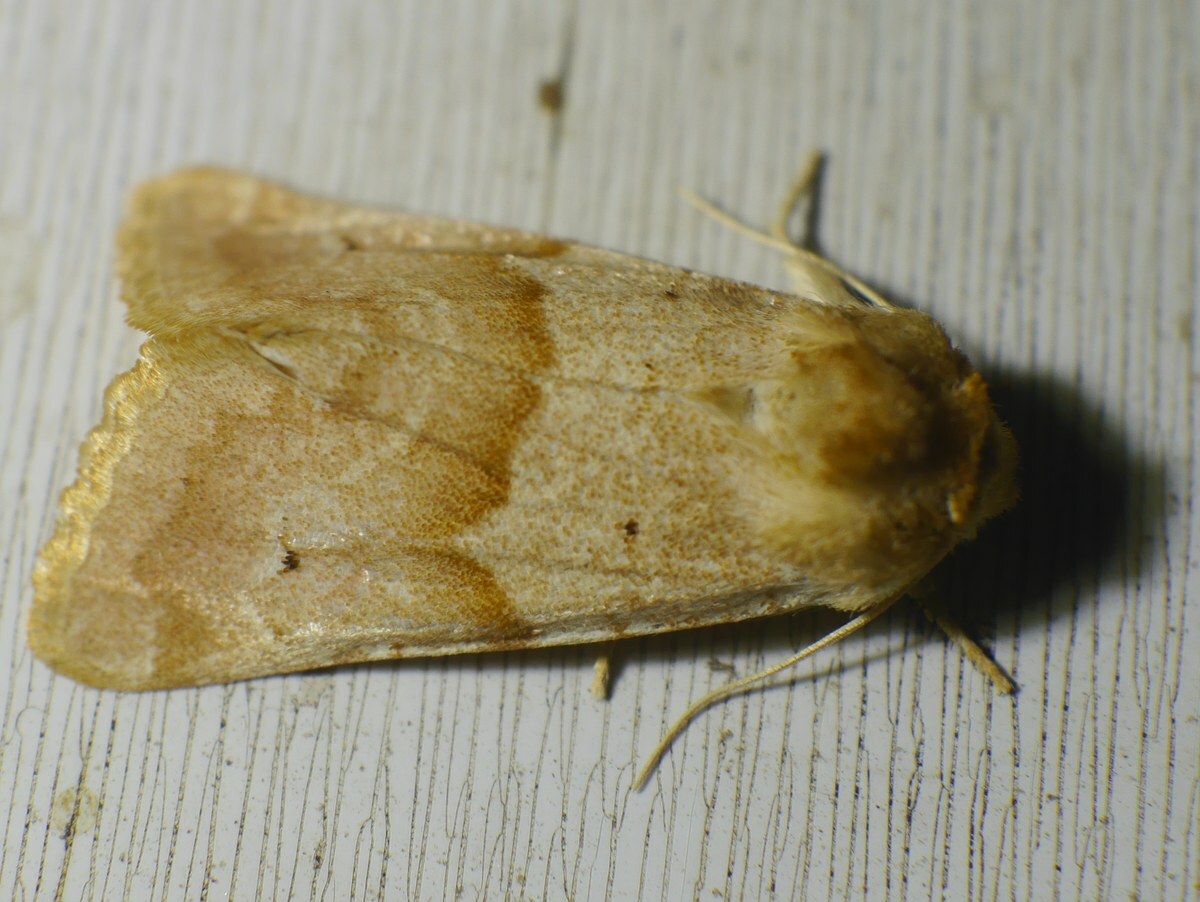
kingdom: Animalia
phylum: Arthropoda
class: Insecta
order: Lepidoptera
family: Noctuidae
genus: Mycteroplus
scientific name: Mycteroplus puniceago
